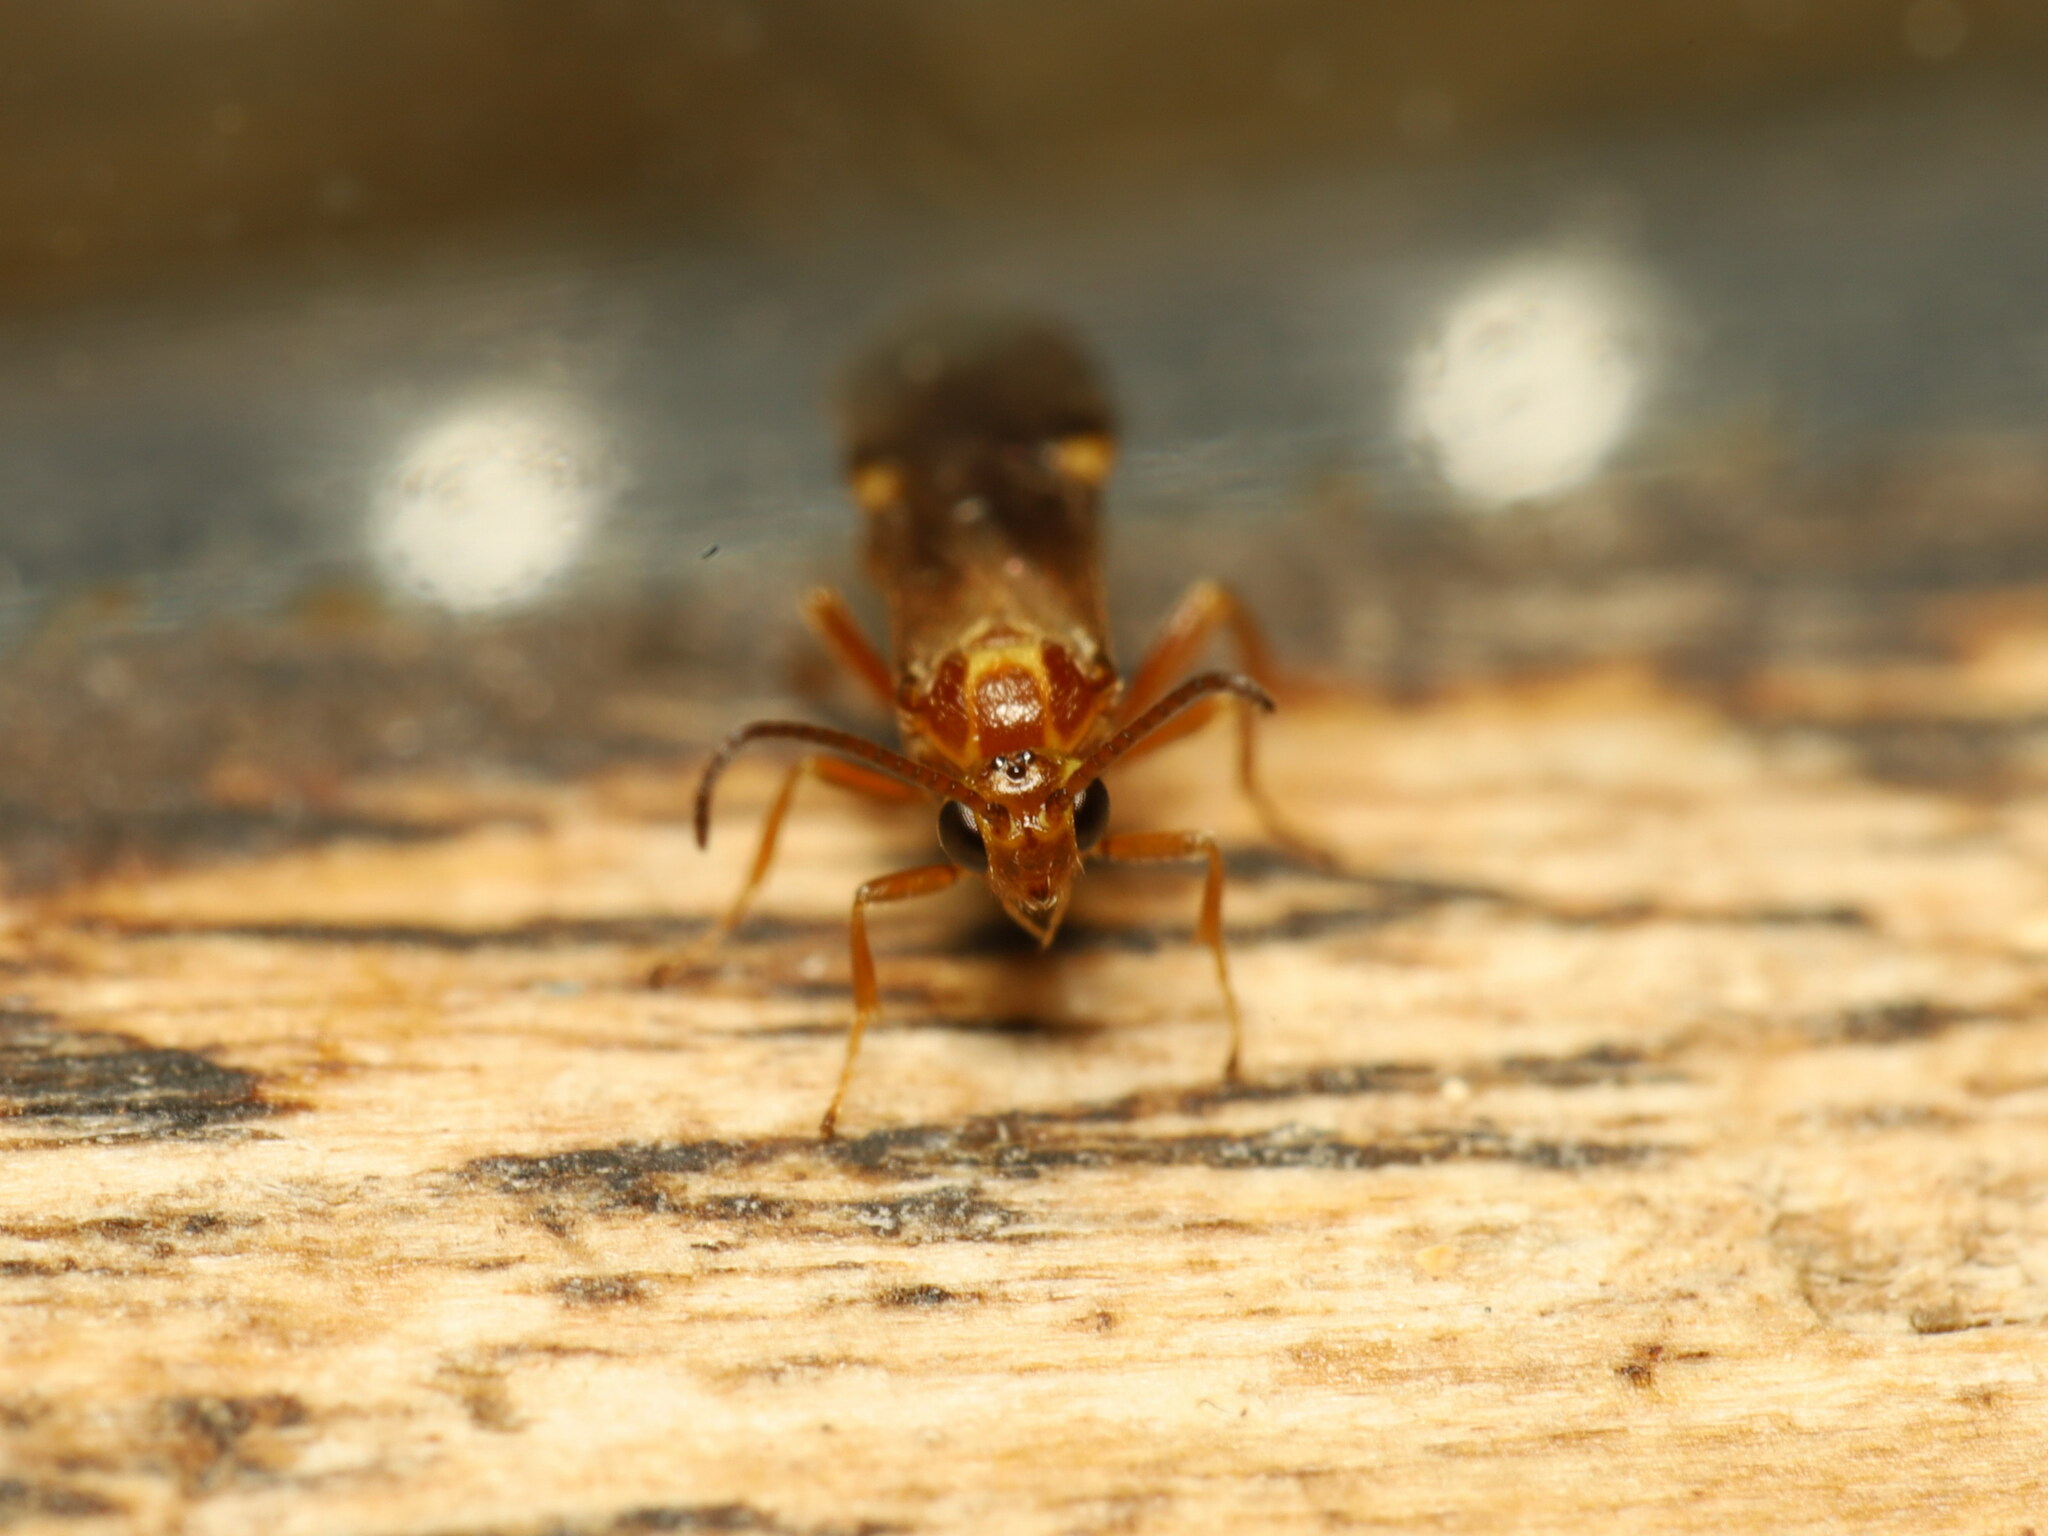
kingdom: Animalia
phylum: Arthropoda
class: Insecta
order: Hymenoptera
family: Braconidae
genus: Habrobracon
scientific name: Habrobracon hebetor
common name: Braconid wasp
